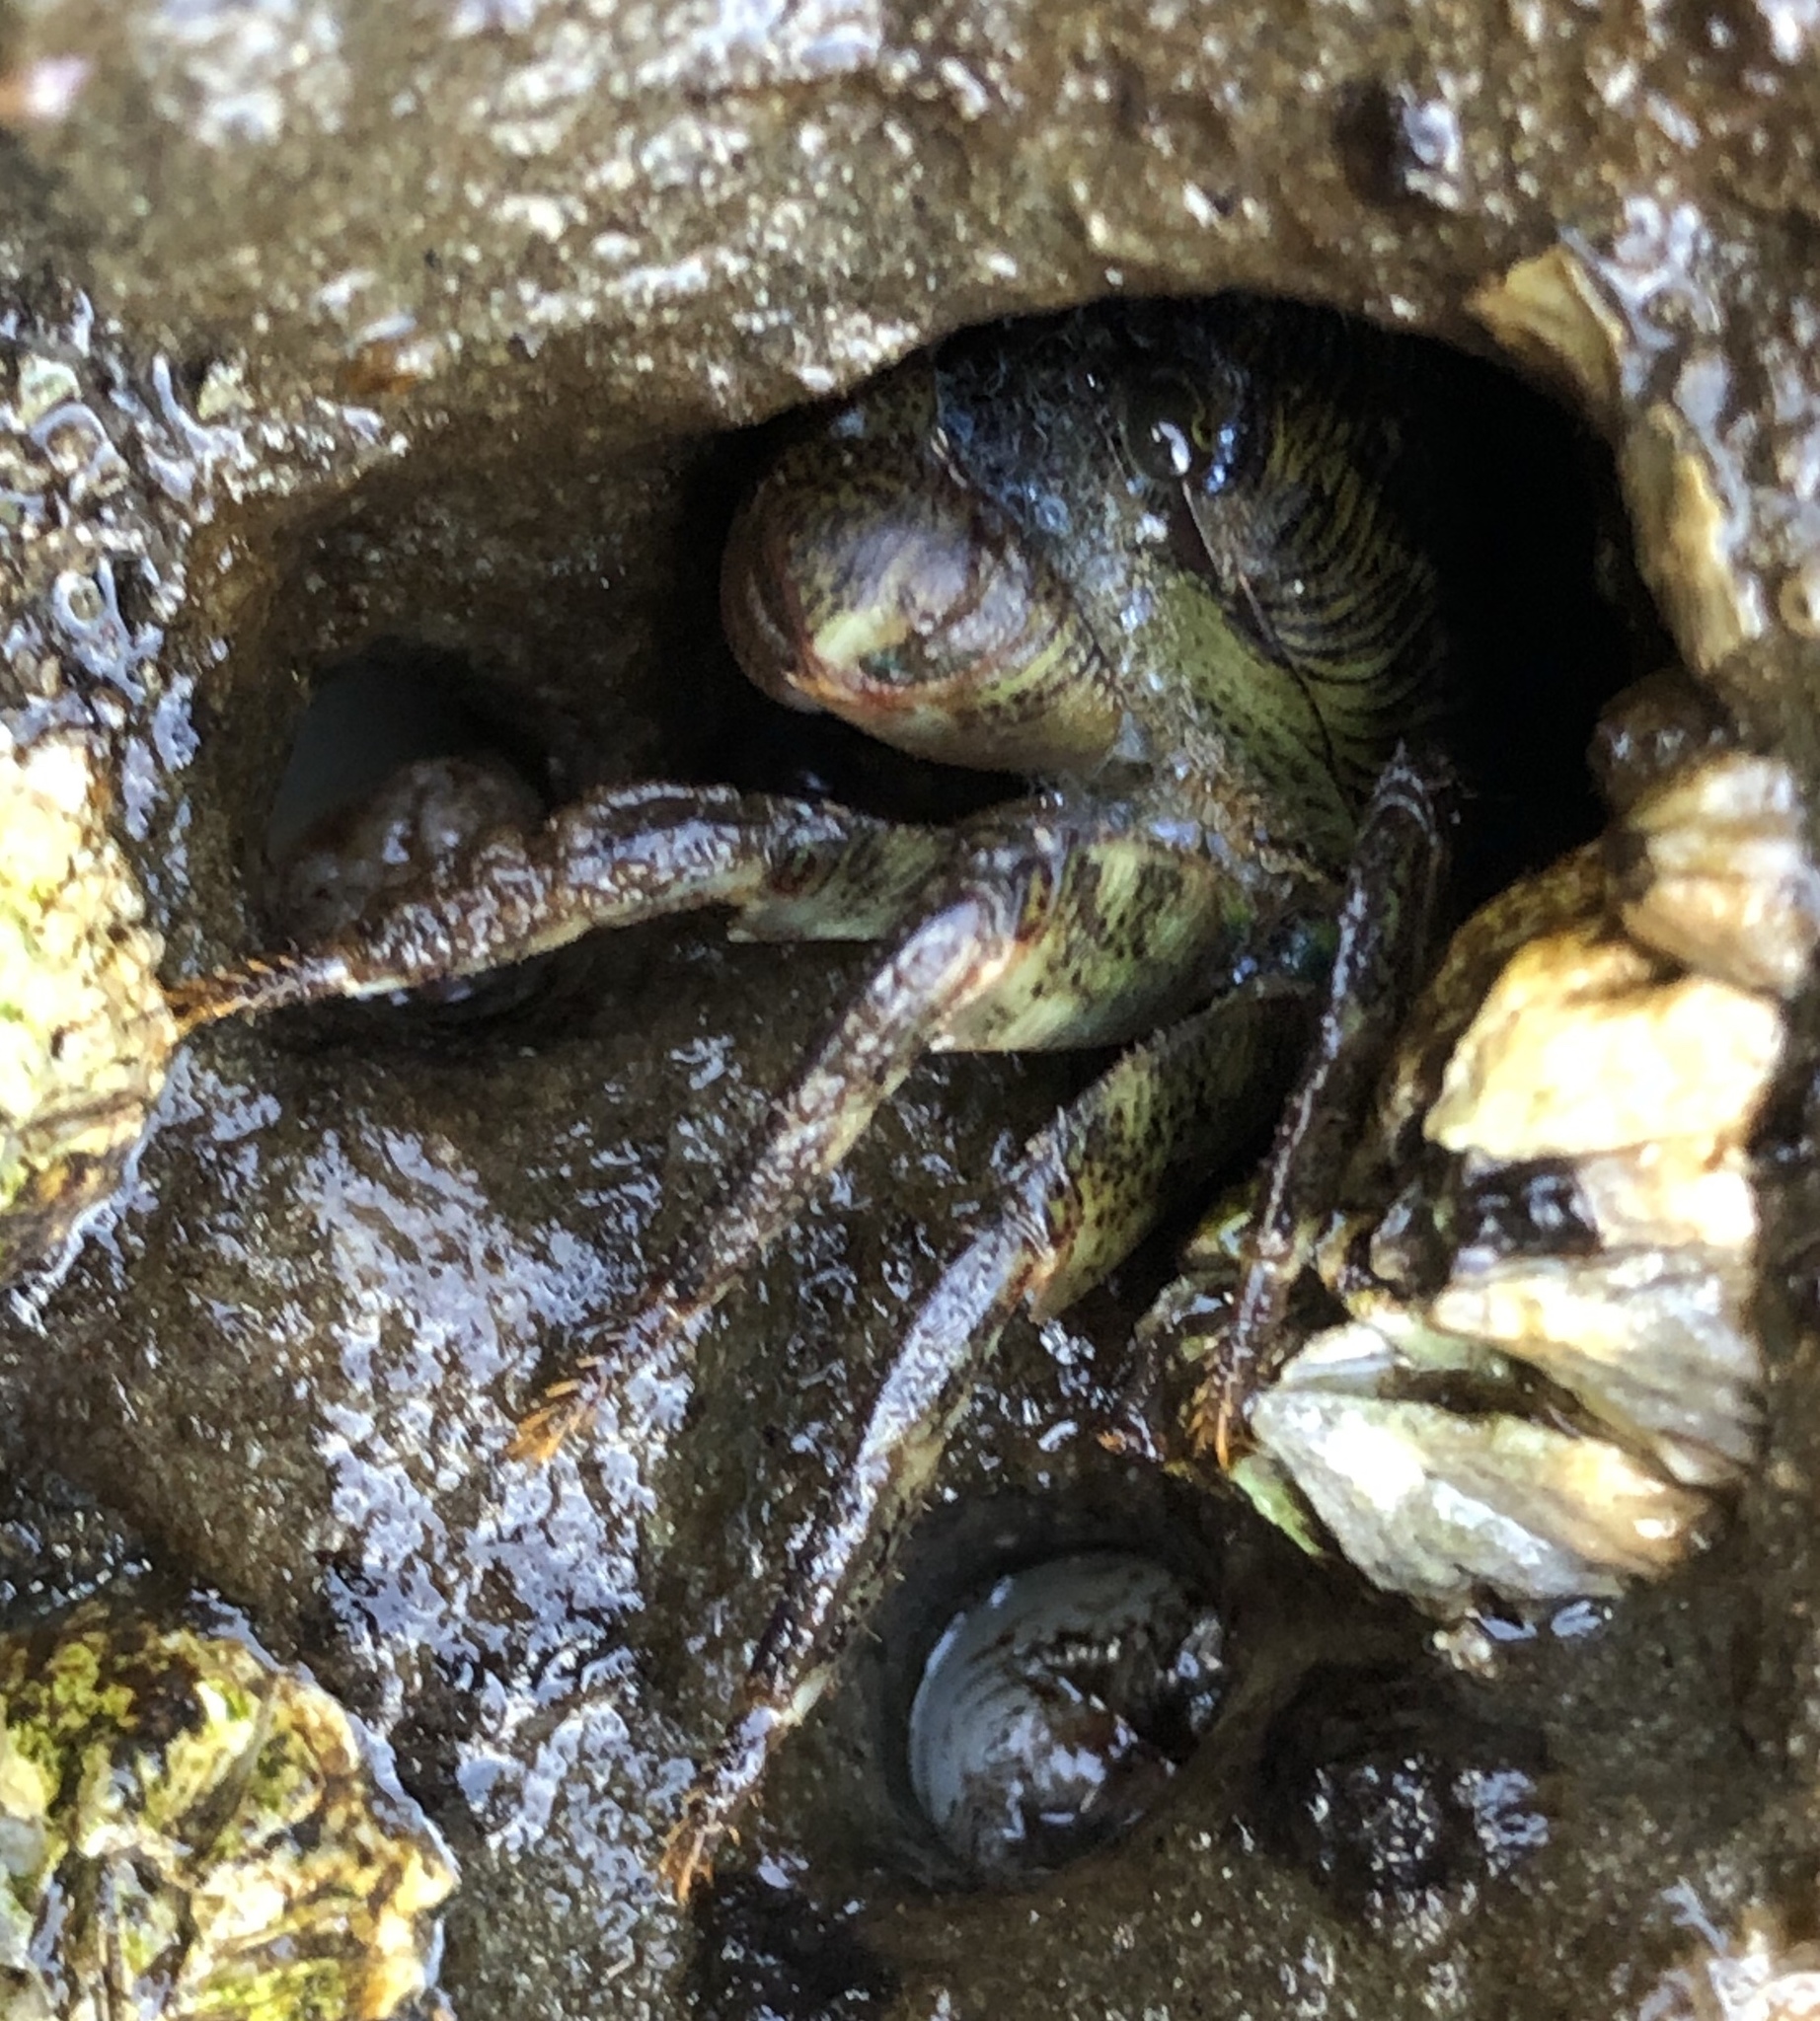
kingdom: Animalia
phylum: Arthropoda
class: Malacostraca
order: Decapoda
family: Grapsidae
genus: Pachygrapsus
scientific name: Pachygrapsus crassipes
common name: Striped shore crab
